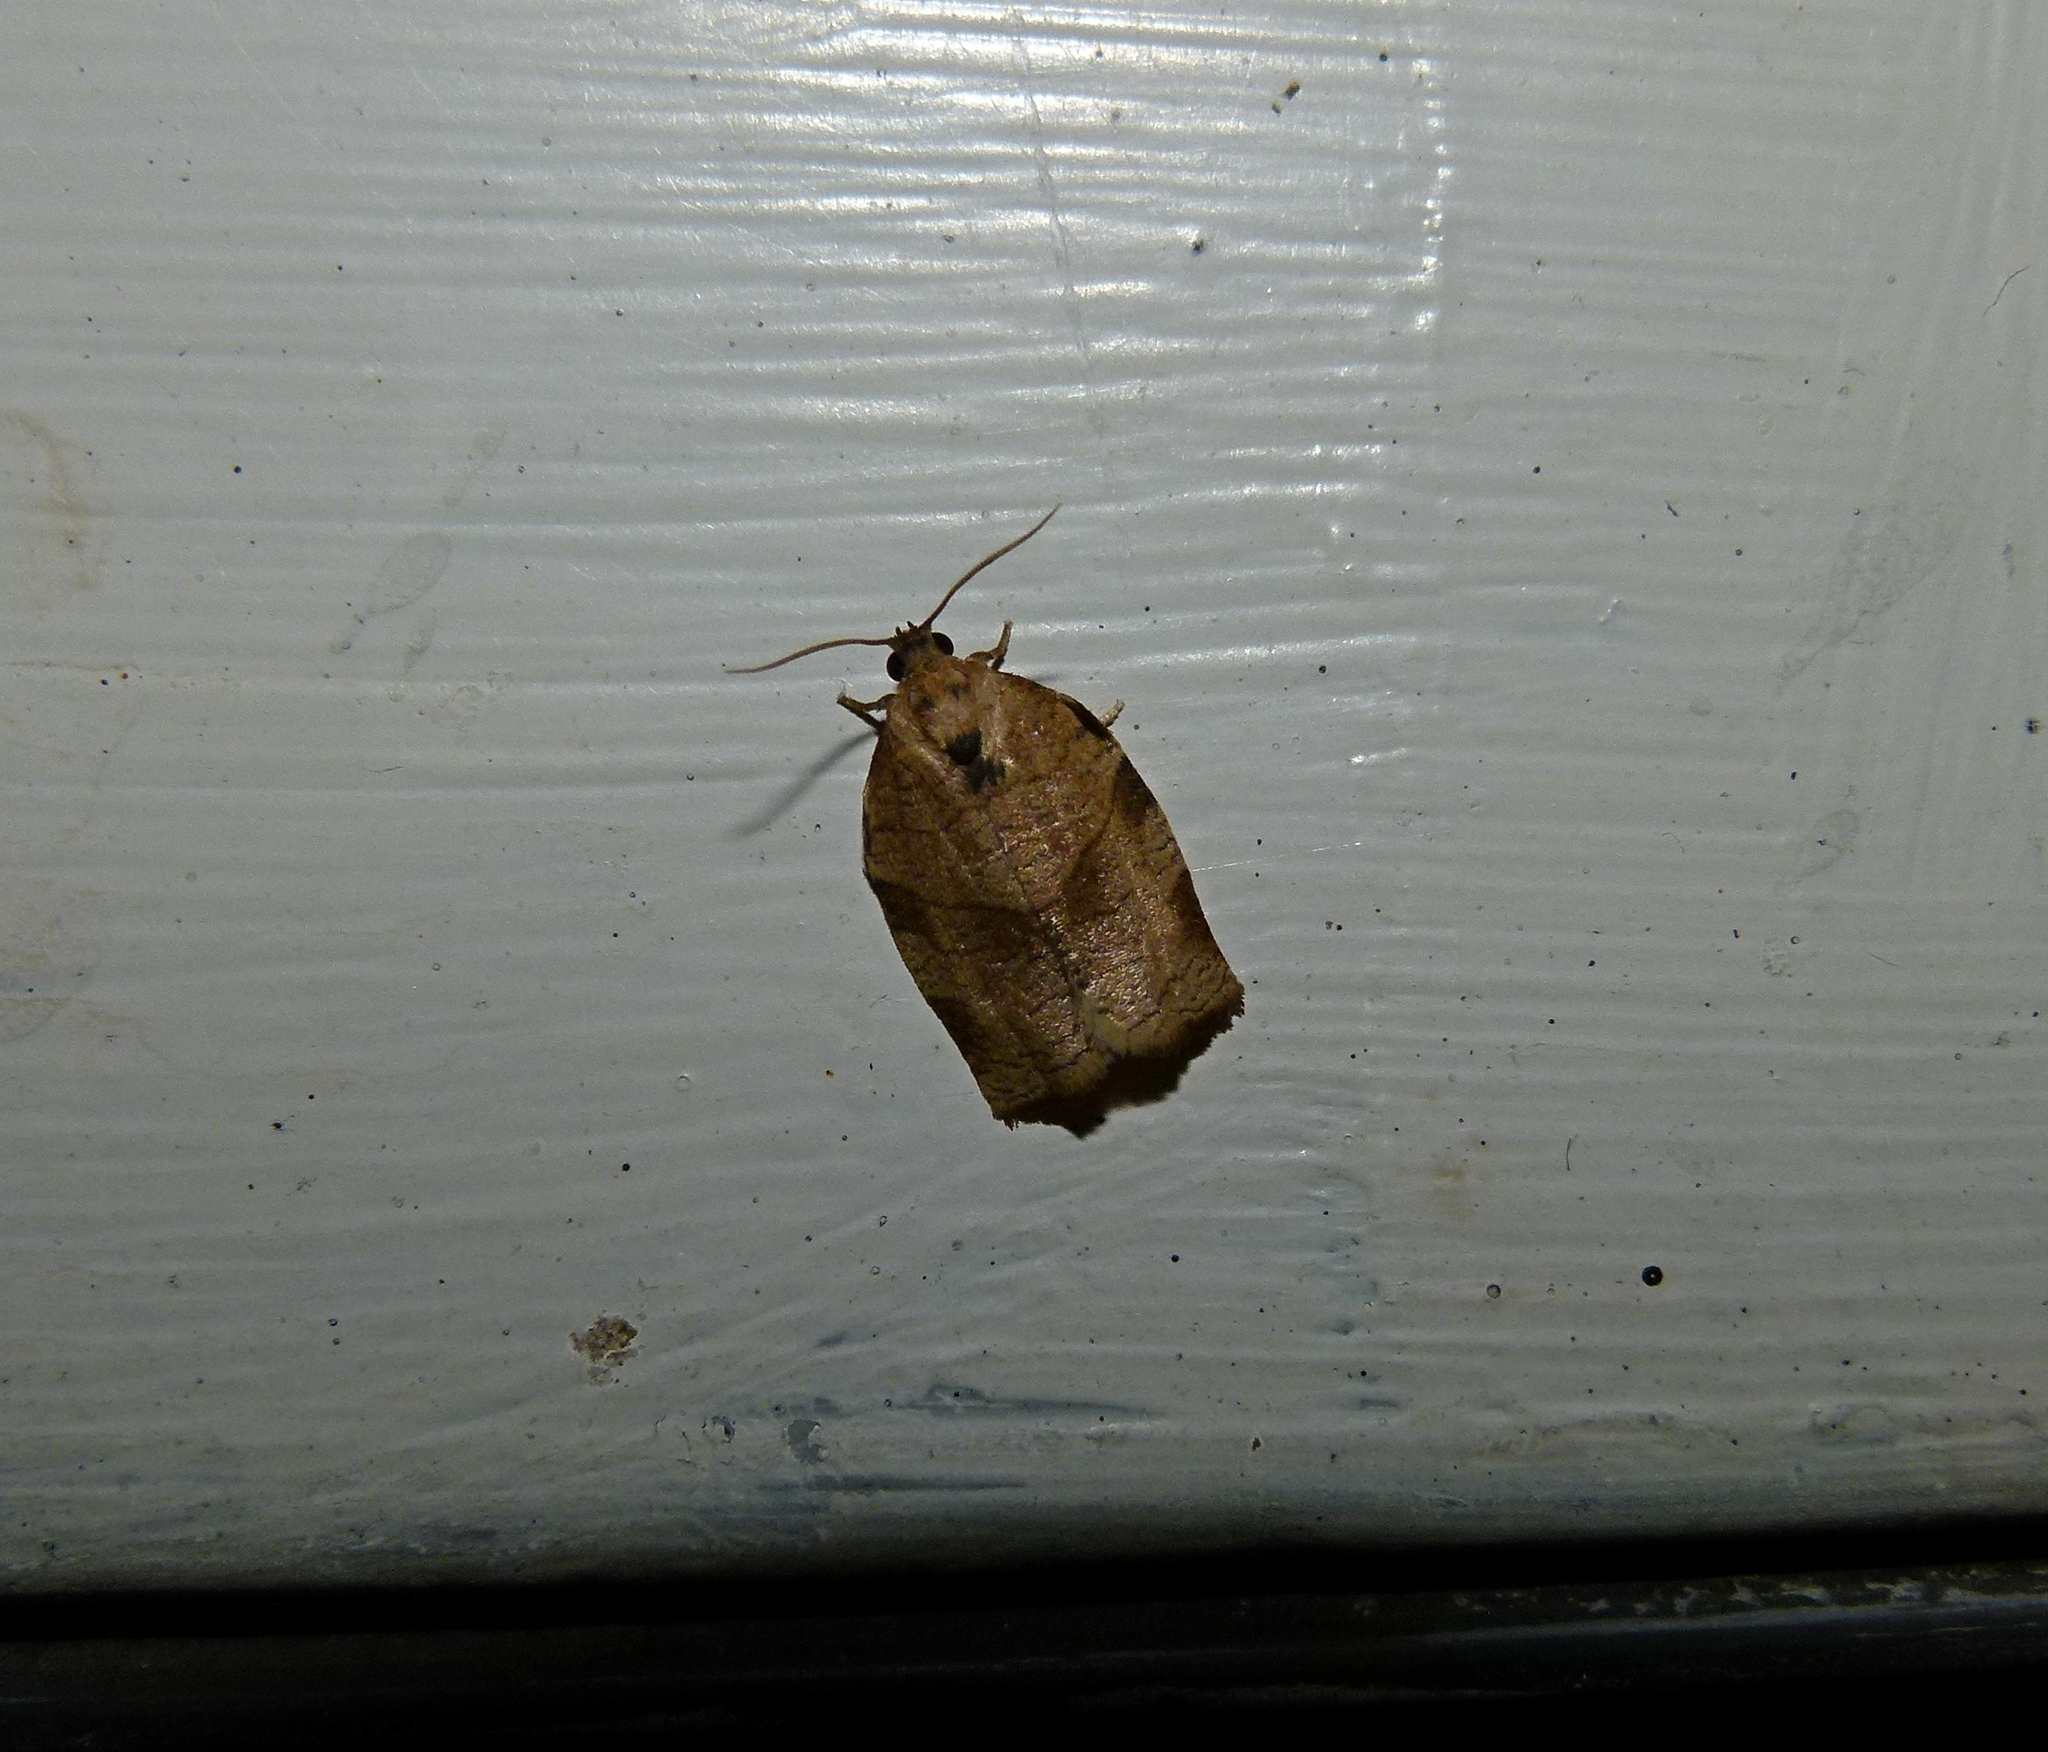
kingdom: Animalia
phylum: Arthropoda
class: Insecta
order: Lepidoptera
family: Tortricidae
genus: Choristoneura
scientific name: Choristoneura rosaceana
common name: Oblique-banded leafroller moth
